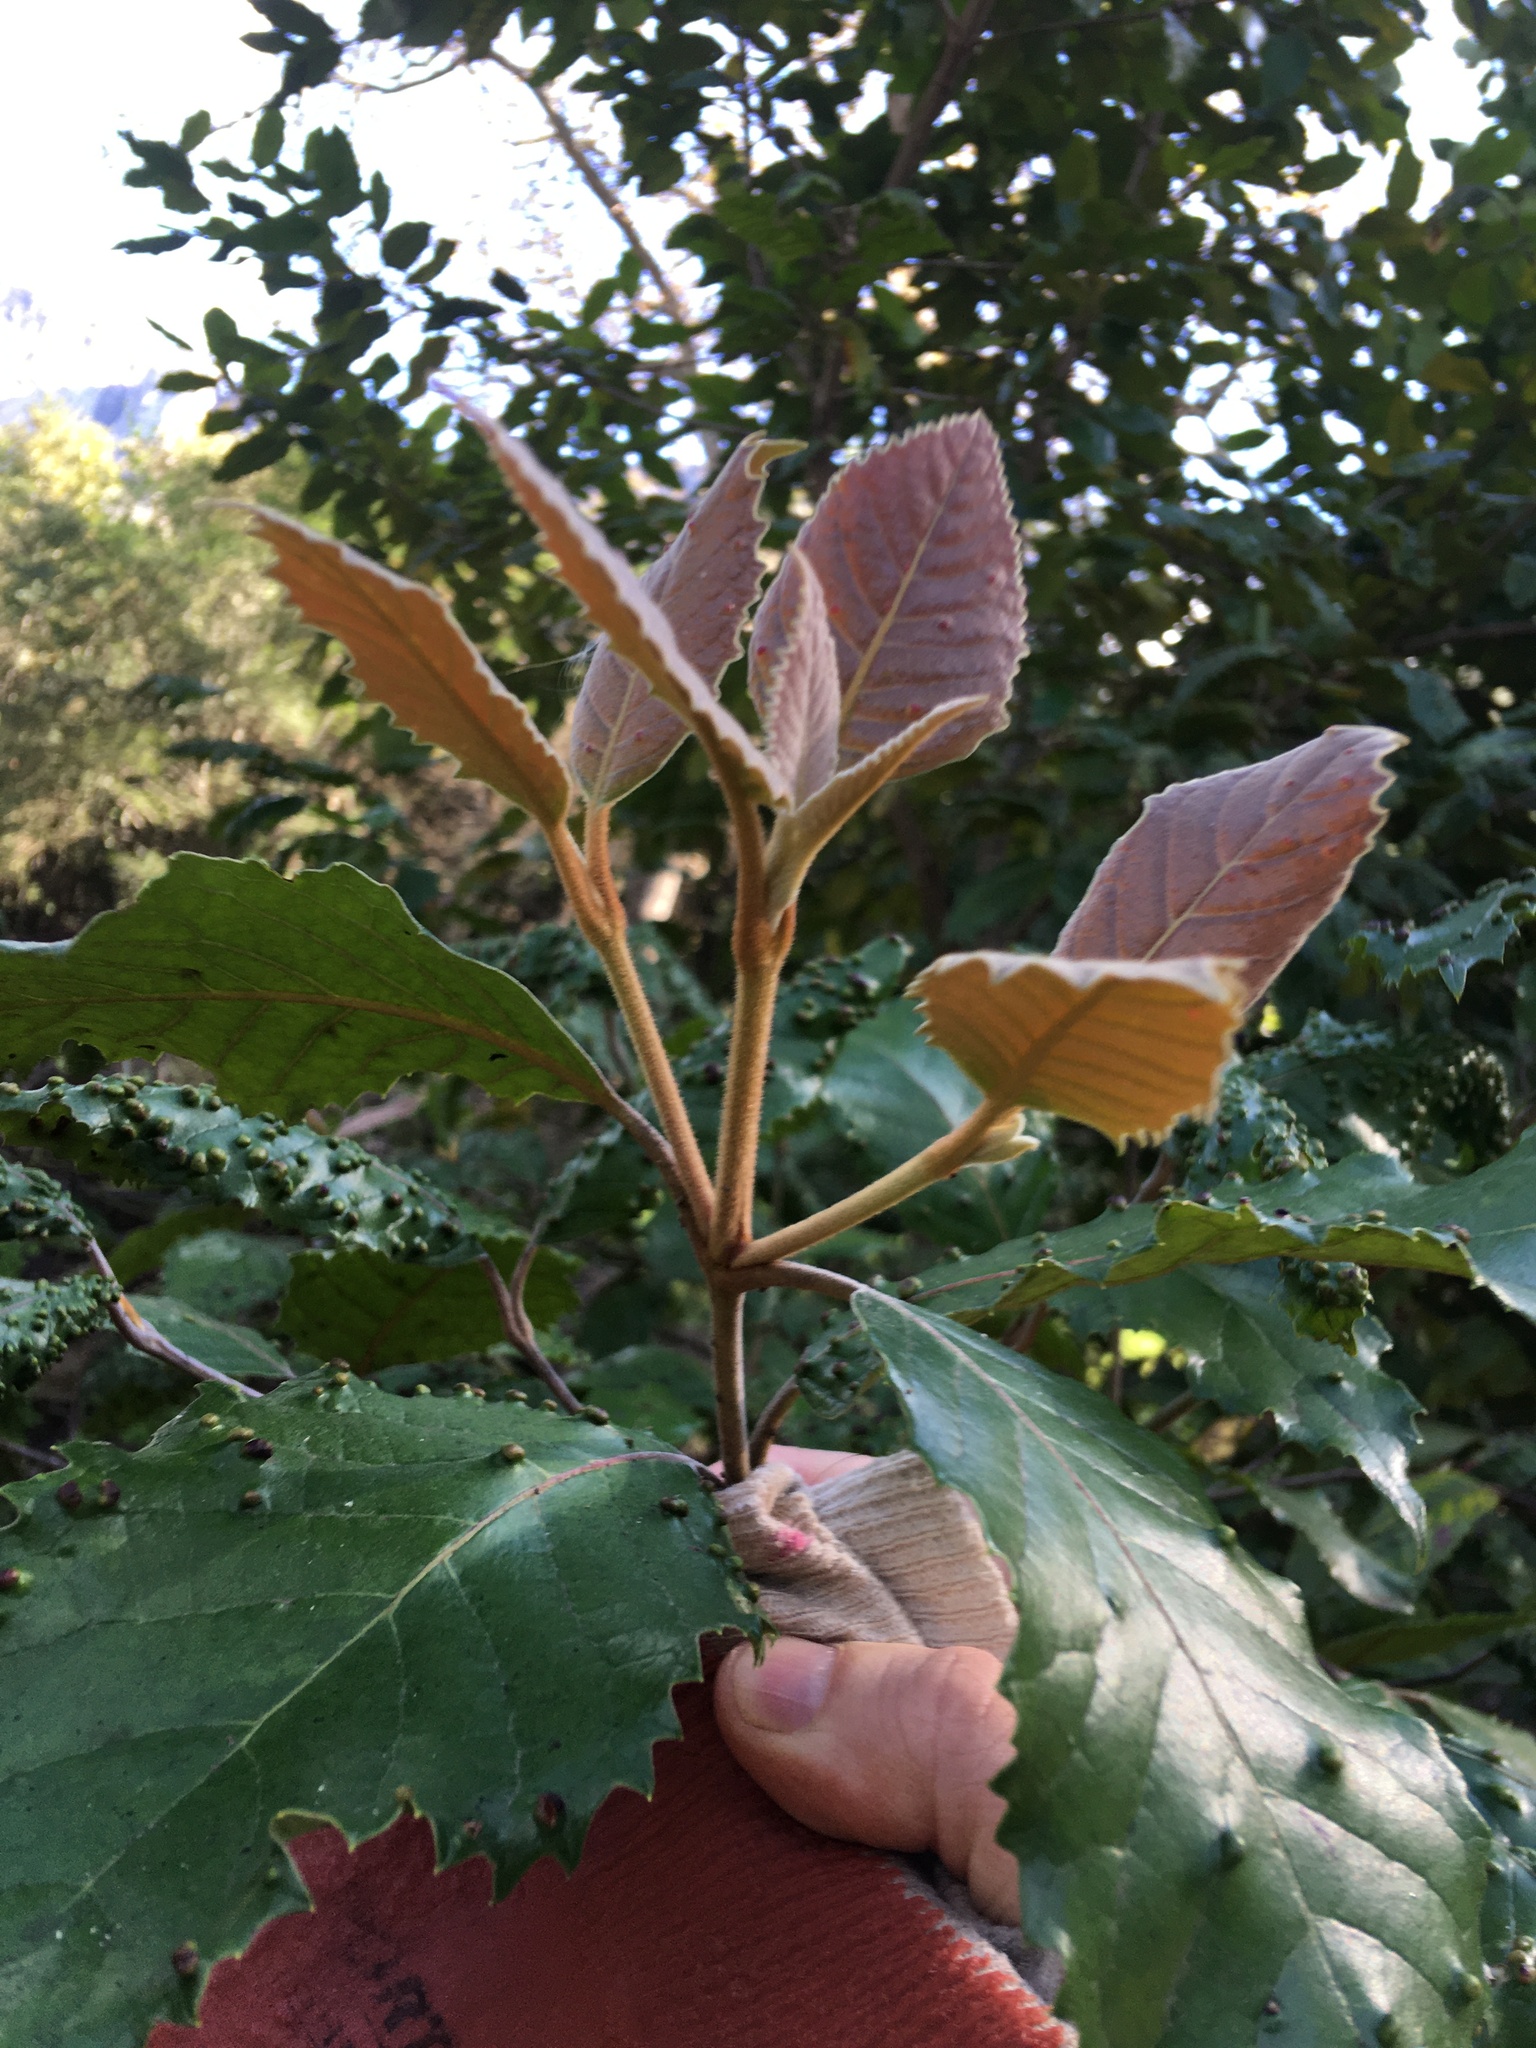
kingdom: Plantae
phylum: Tracheophyta
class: Magnoliopsida
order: Cornales
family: Curtisiaceae
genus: Curtisia
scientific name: Curtisia dentata
